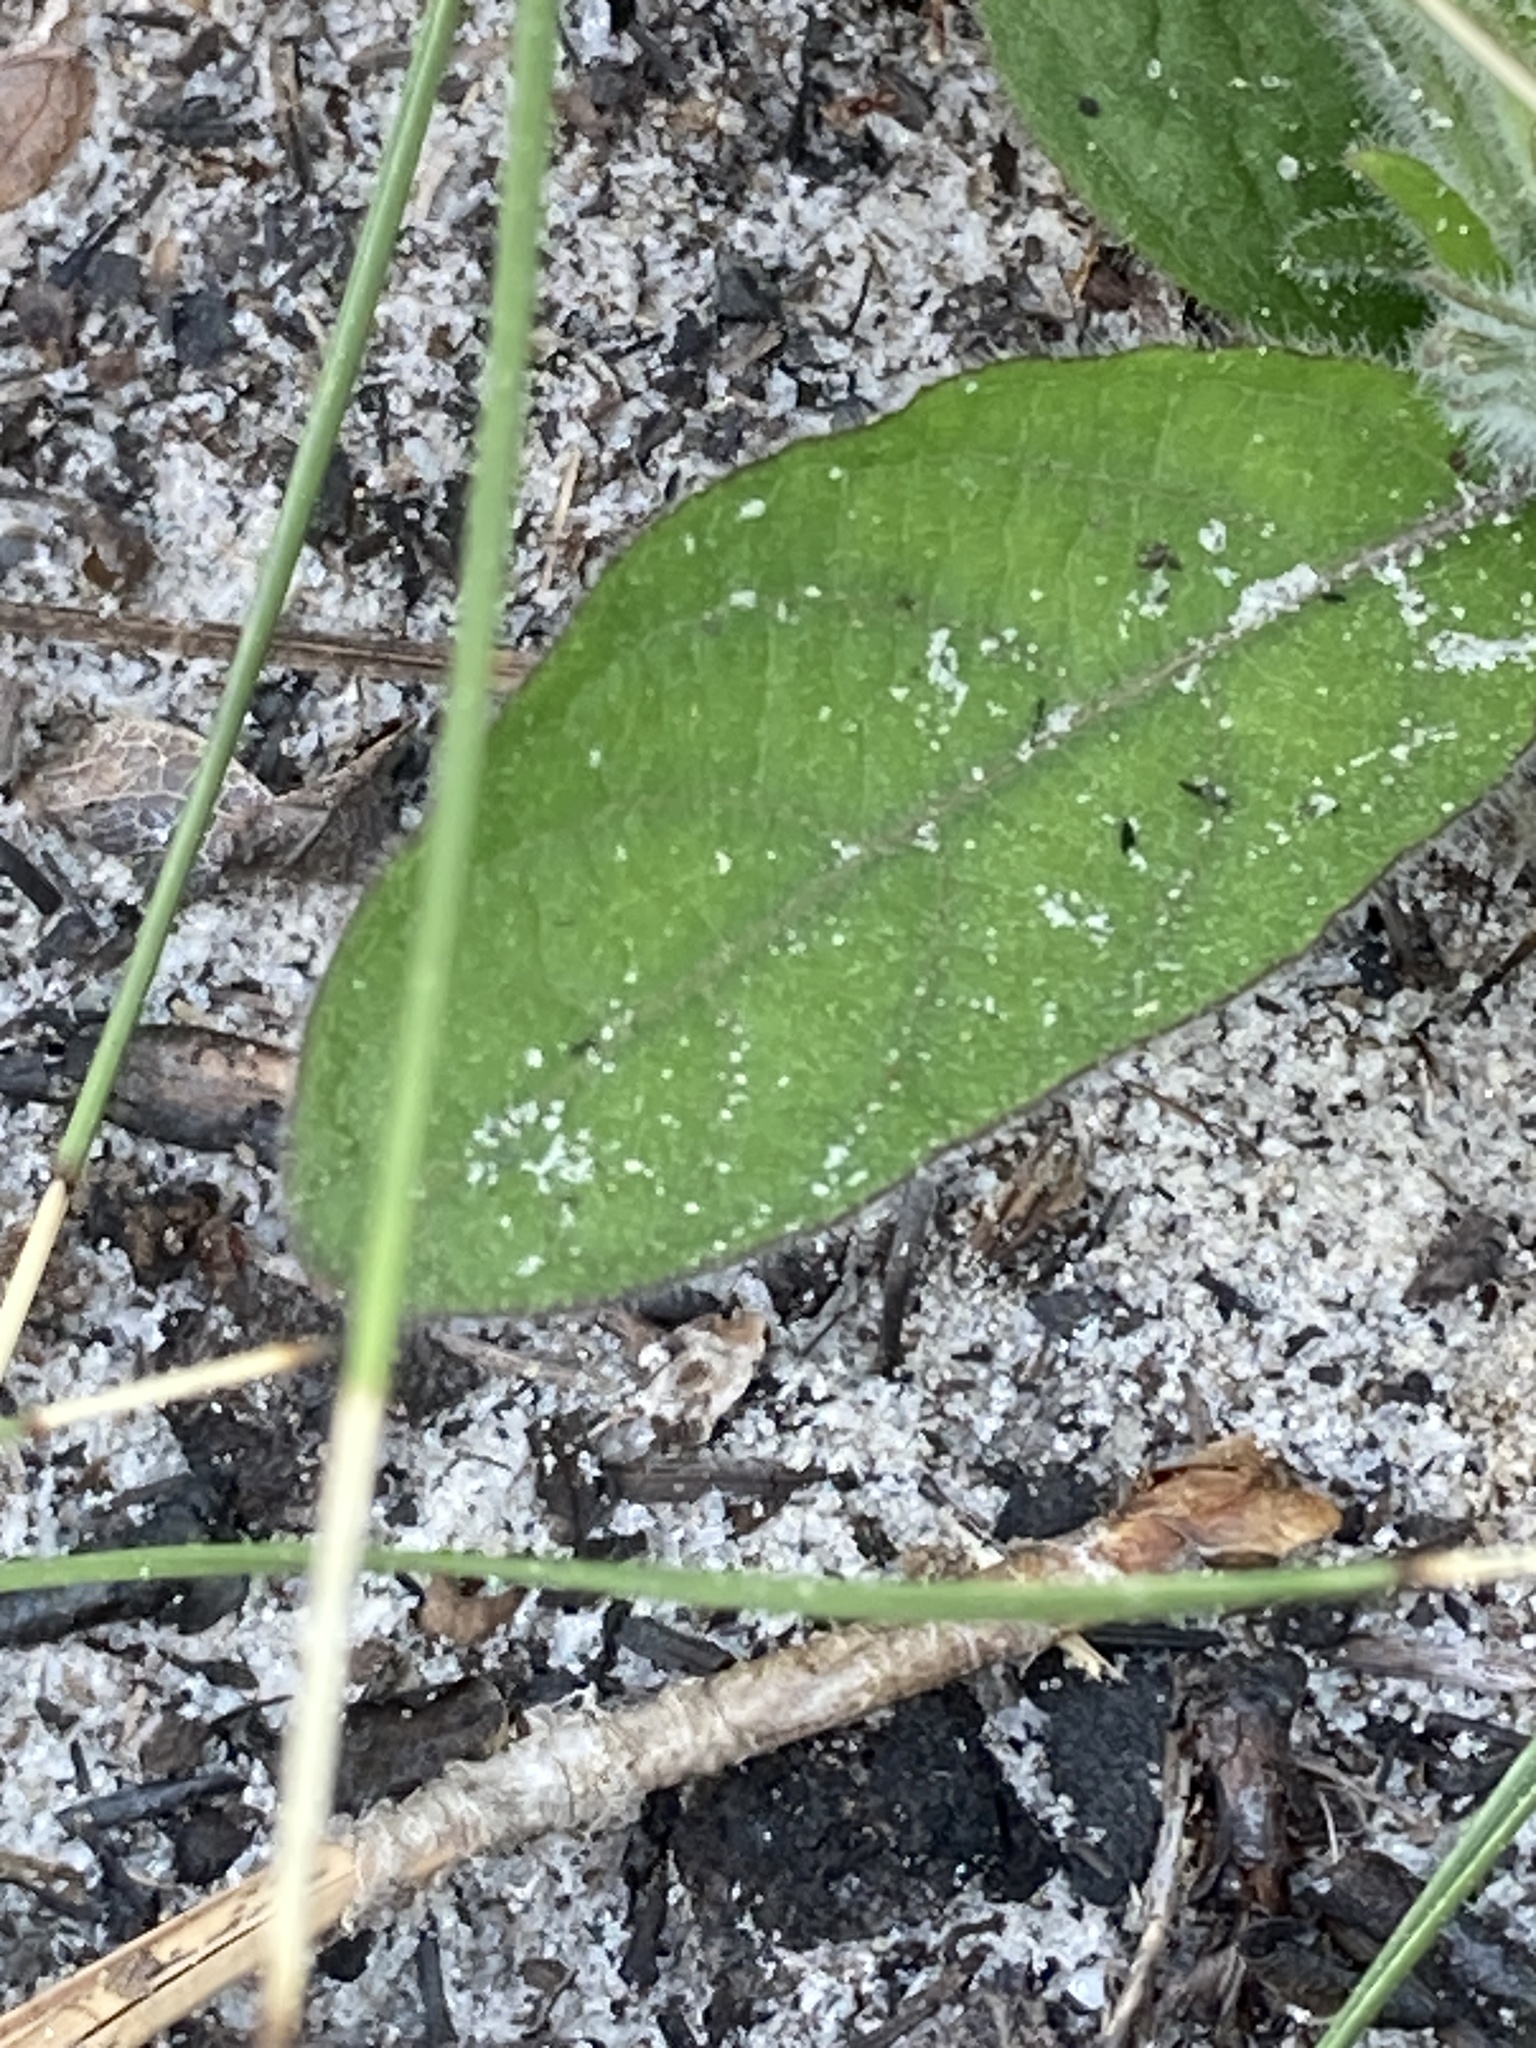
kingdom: Plantae
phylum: Tracheophyta
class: Magnoliopsida
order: Lamiales
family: Acanthaceae
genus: Ruellia
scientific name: Ruellia caroliniensis
